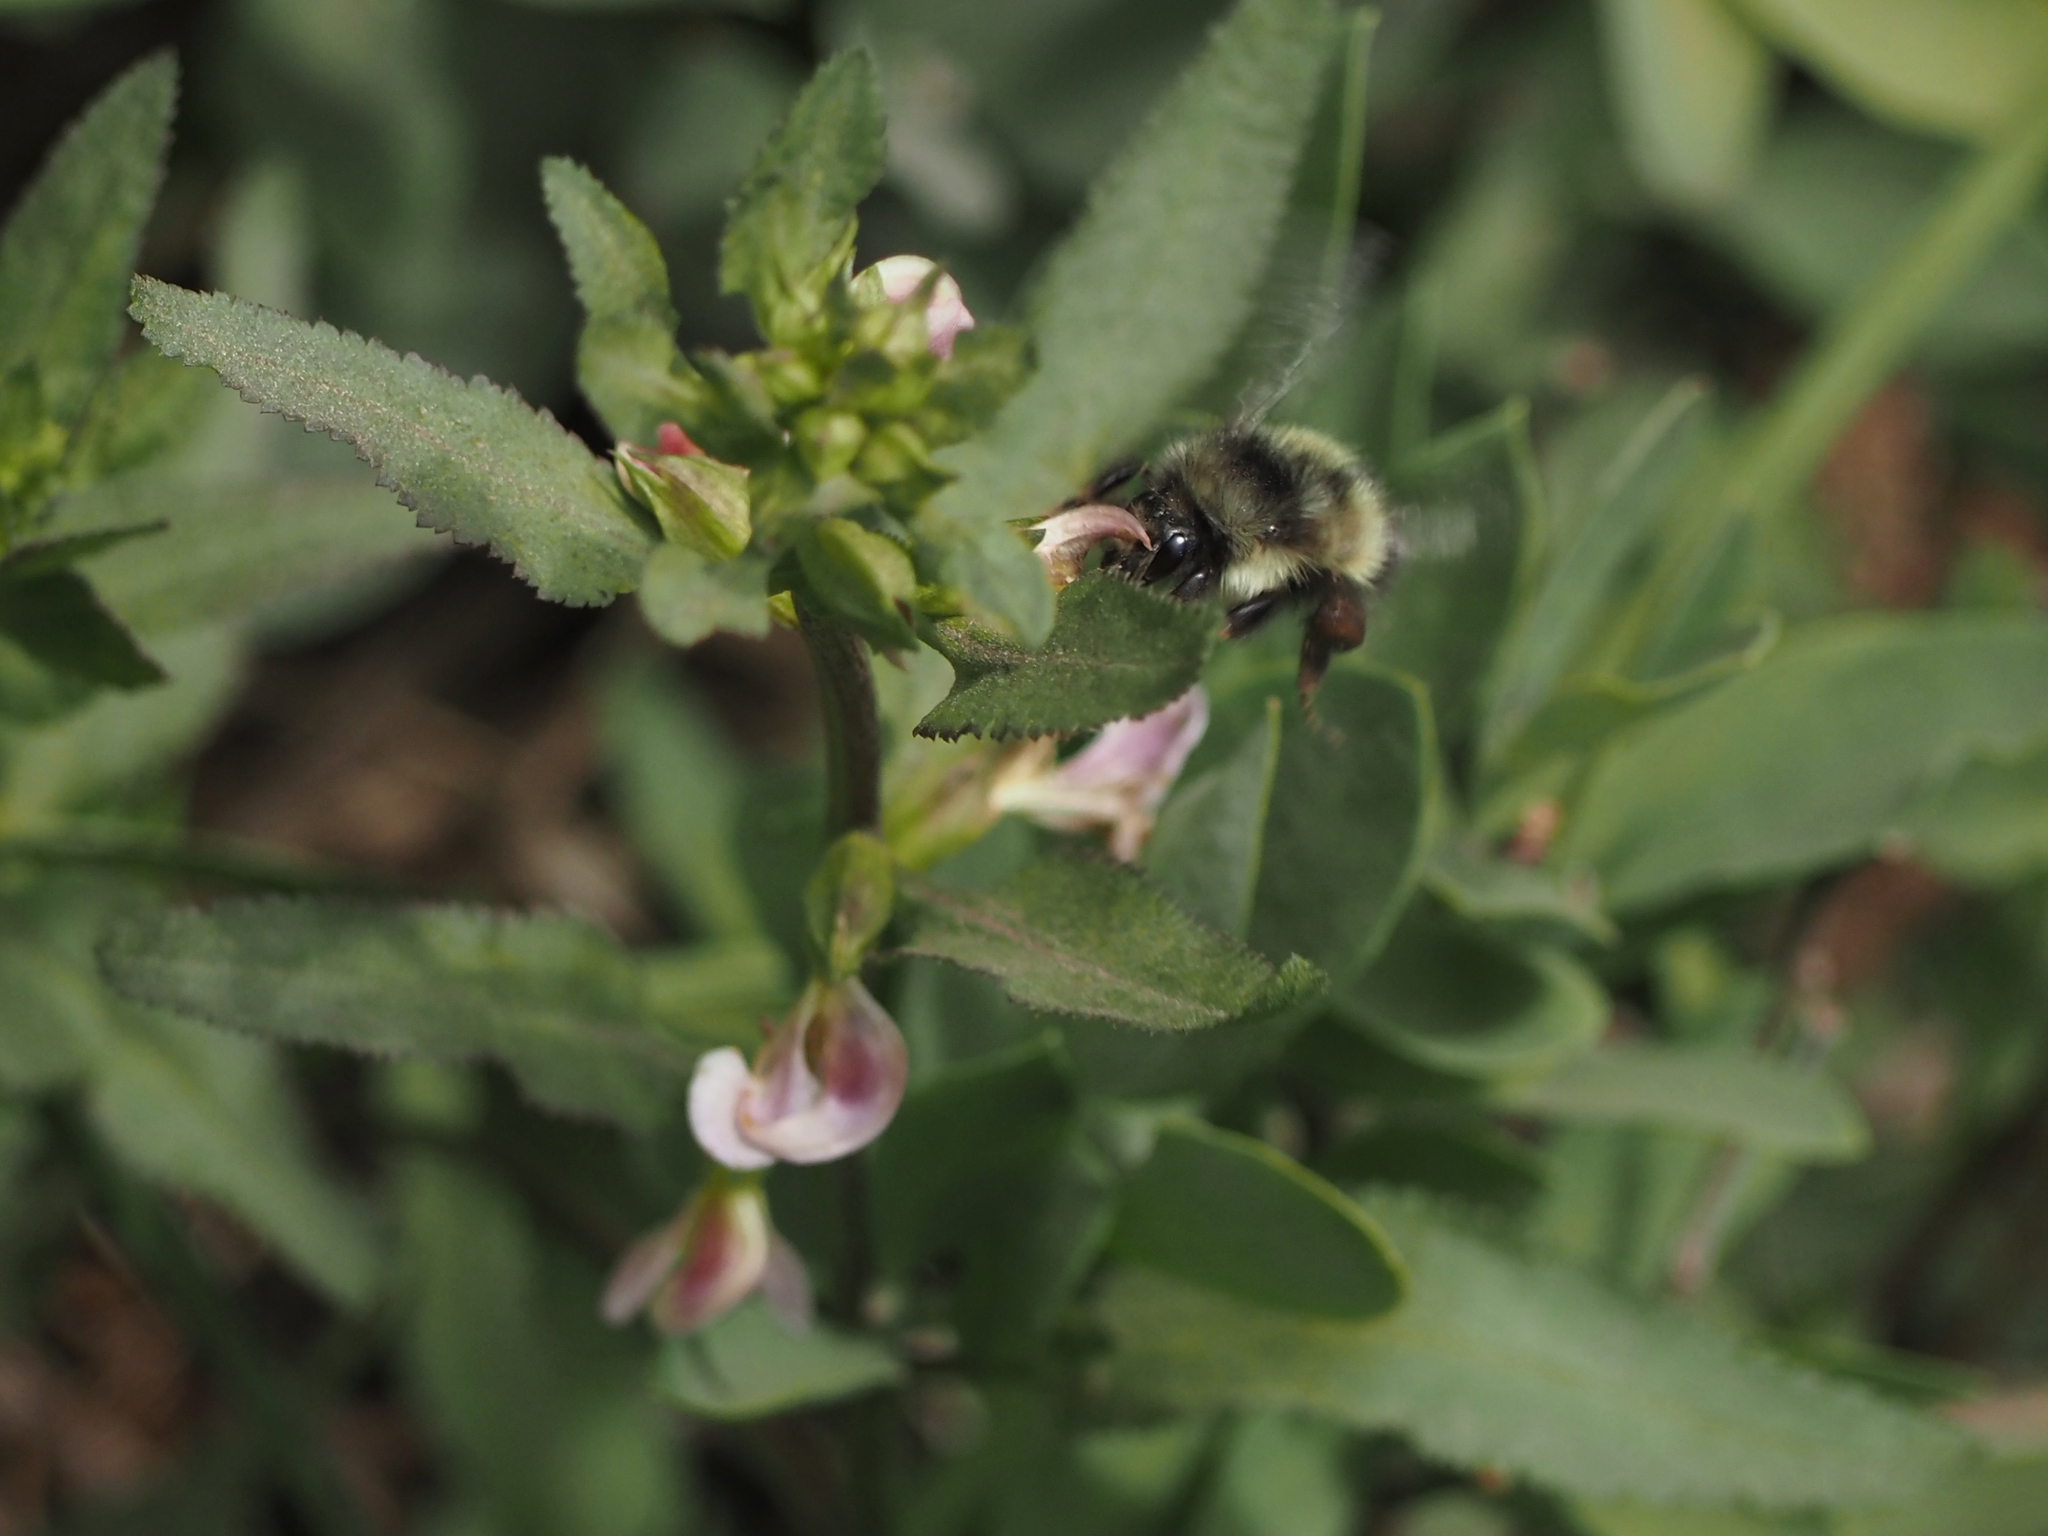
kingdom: Plantae
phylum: Tracheophyta
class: Magnoliopsida
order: Lamiales
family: Orobanchaceae
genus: Pedicularis
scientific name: Pedicularis racemosa
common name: Leafy lousewort
